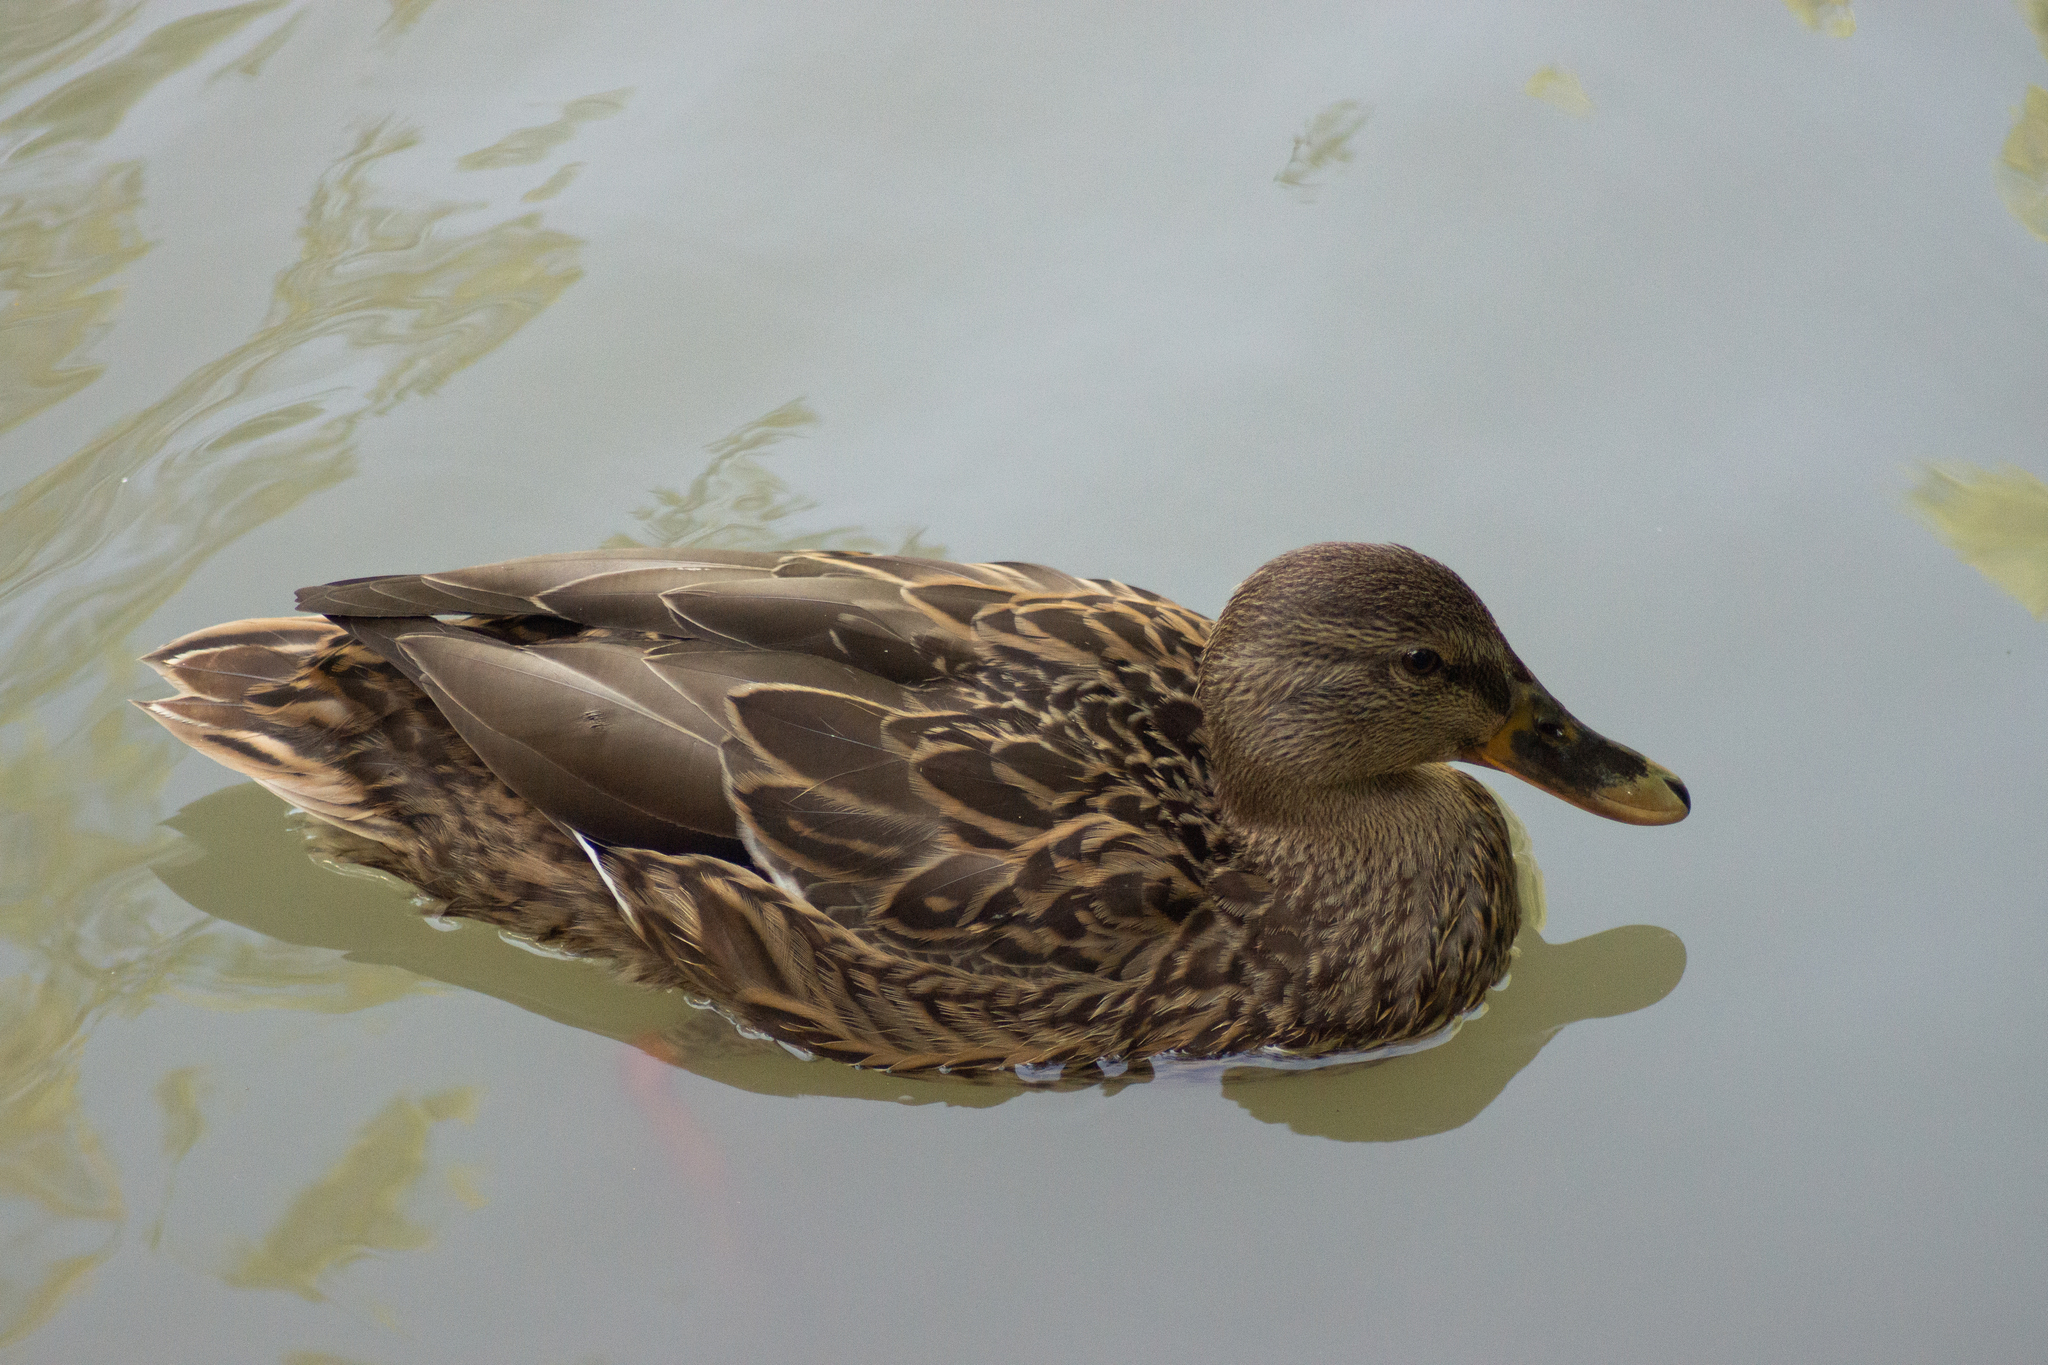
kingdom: Animalia
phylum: Chordata
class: Aves
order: Anseriformes
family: Anatidae
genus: Anas
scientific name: Anas platyrhynchos
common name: Mallard
